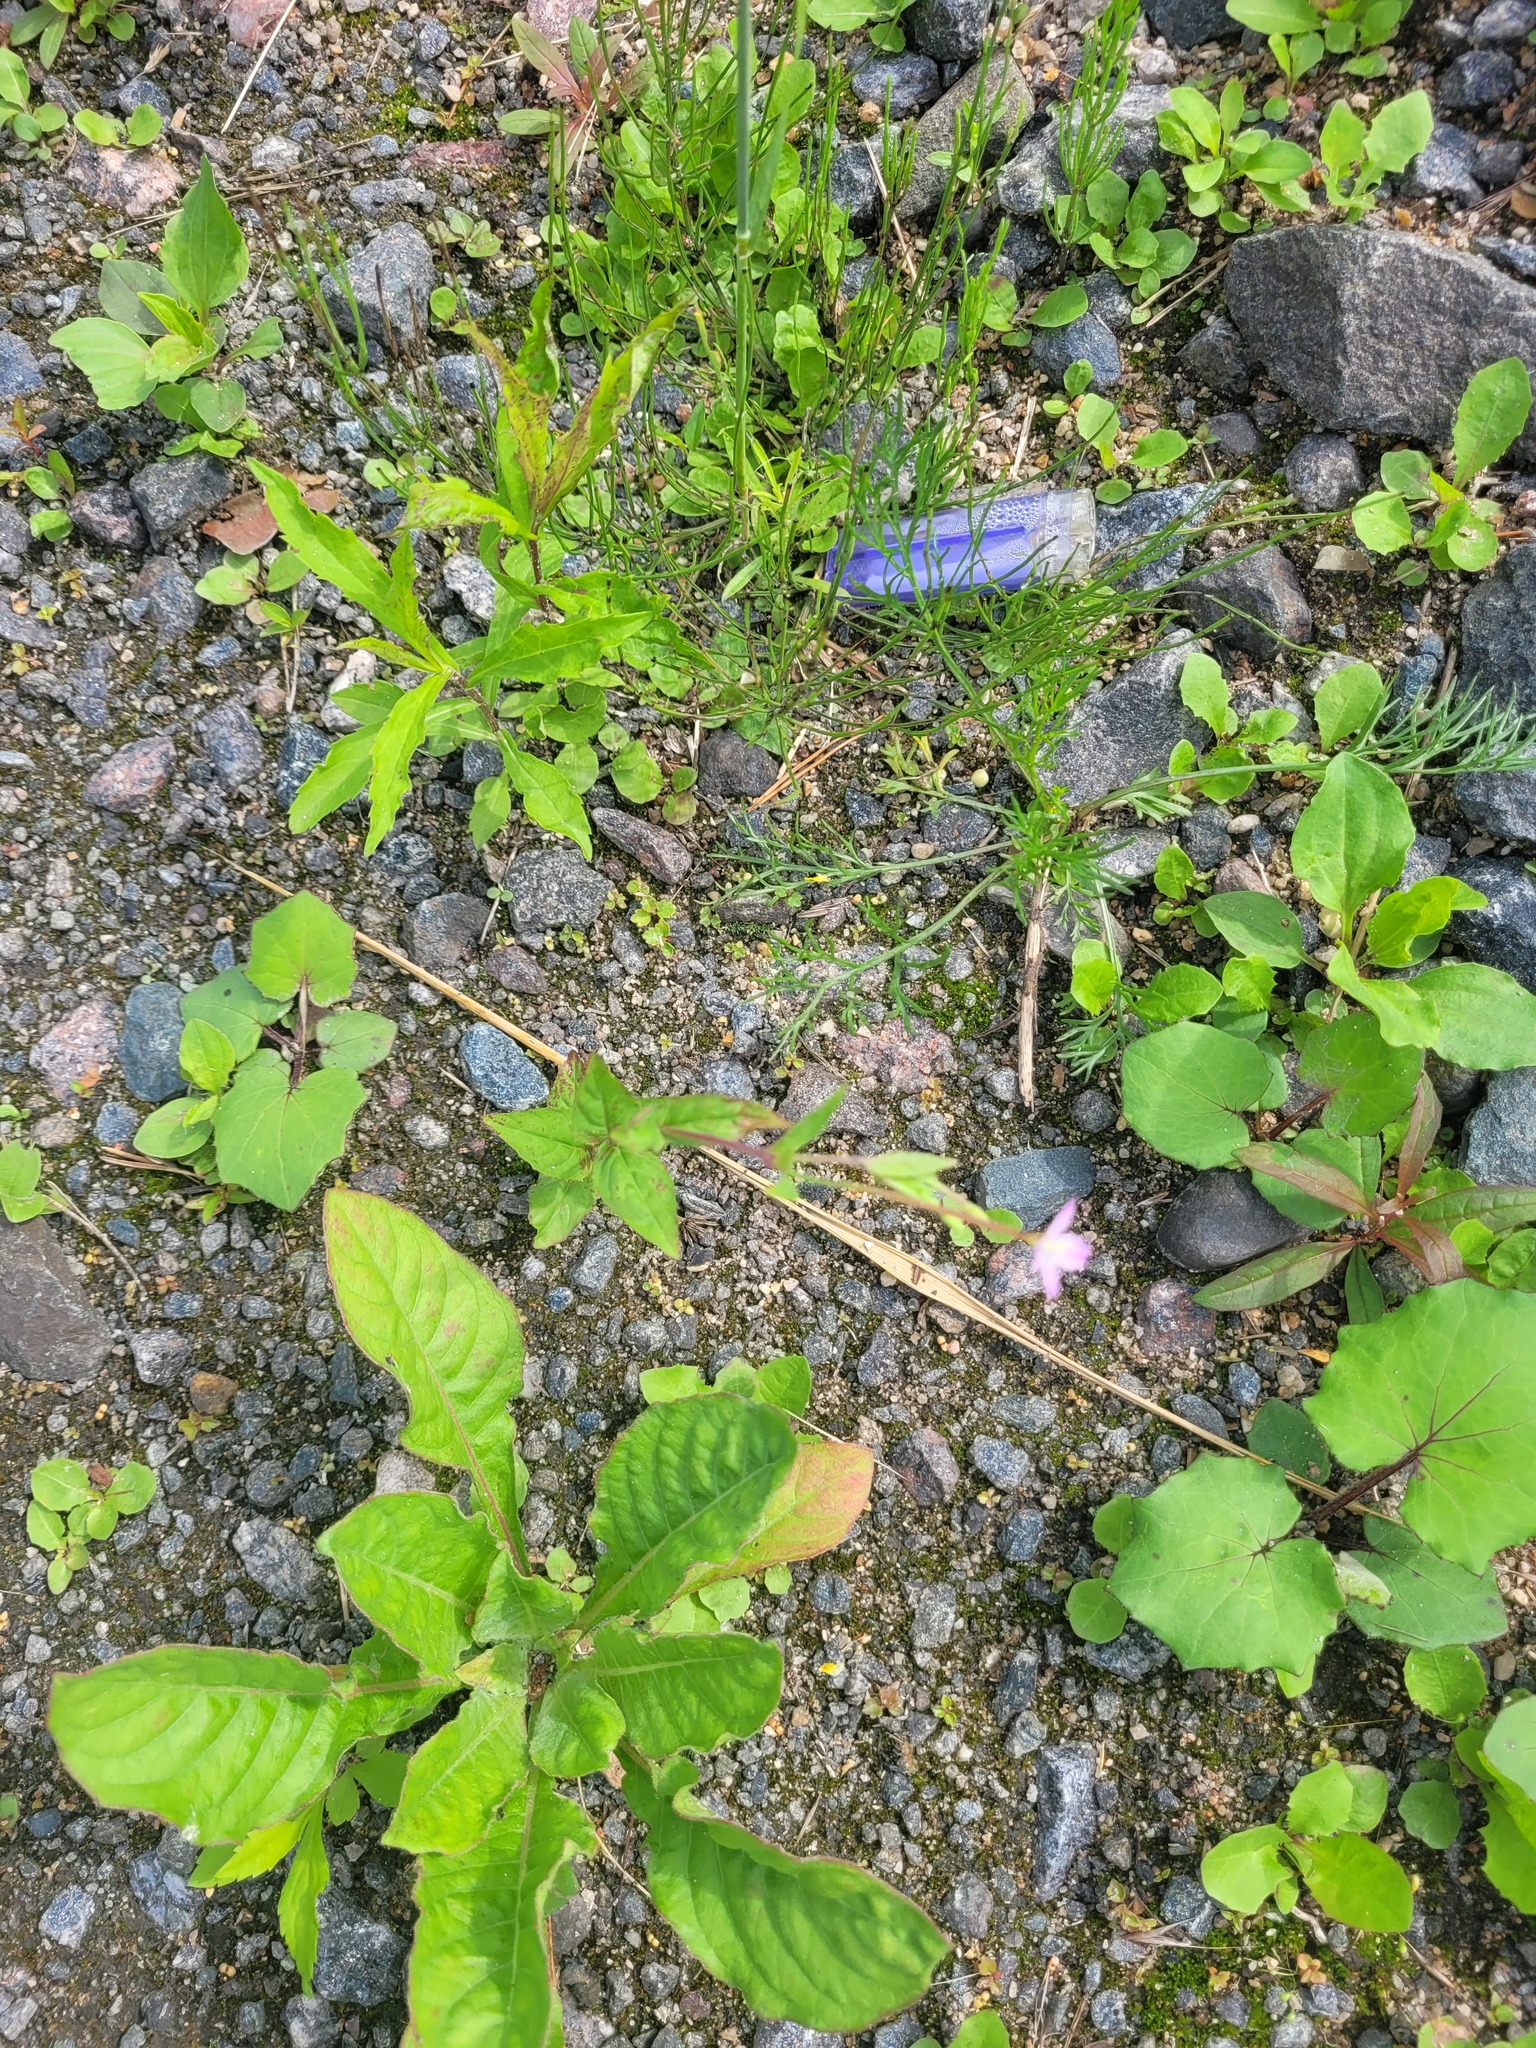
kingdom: Plantae
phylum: Tracheophyta
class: Magnoliopsida
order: Myrtales
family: Onagraceae
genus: Epilobium
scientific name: Epilobium montanum
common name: Broad-leaved willowherb
